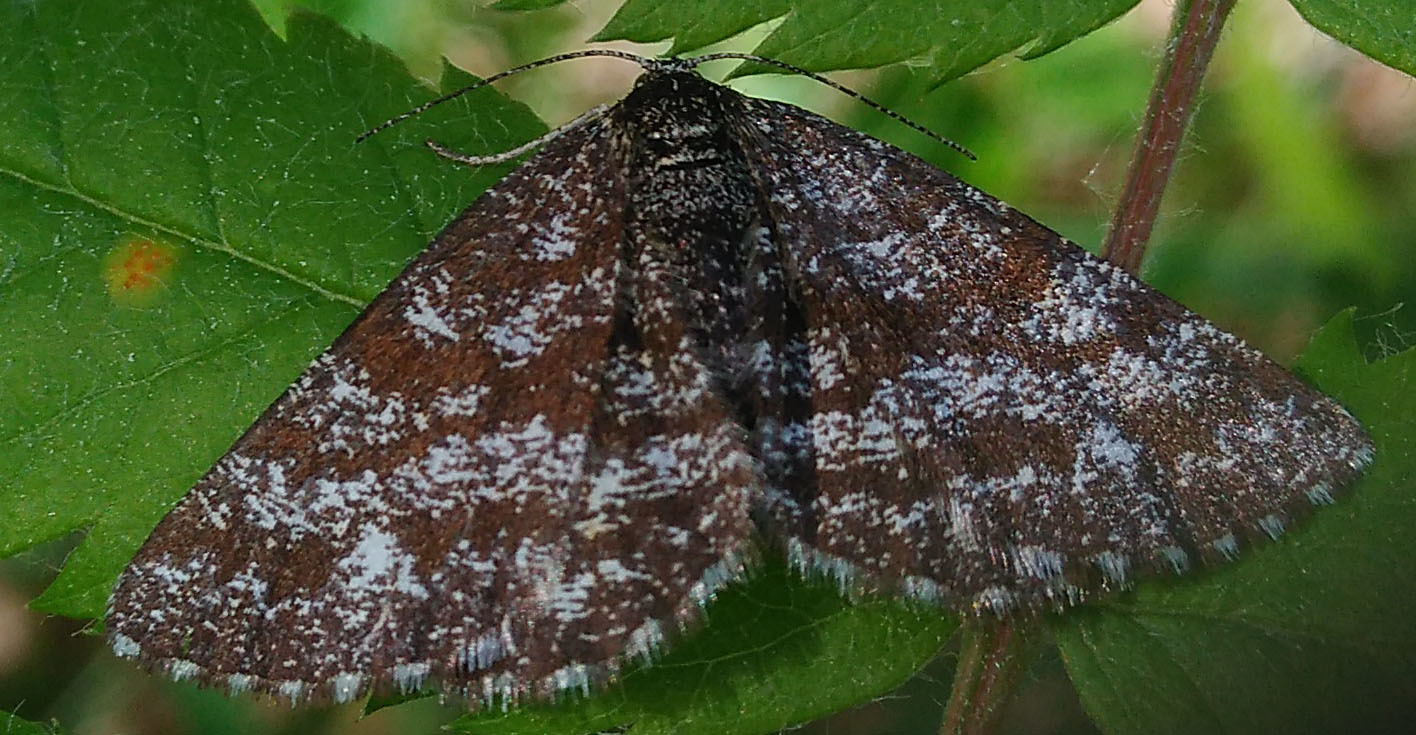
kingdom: Animalia
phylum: Arthropoda
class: Insecta
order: Lepidoptera
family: Geometridae
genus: Ematurga
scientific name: Ematurga atomaria
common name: Common heath
